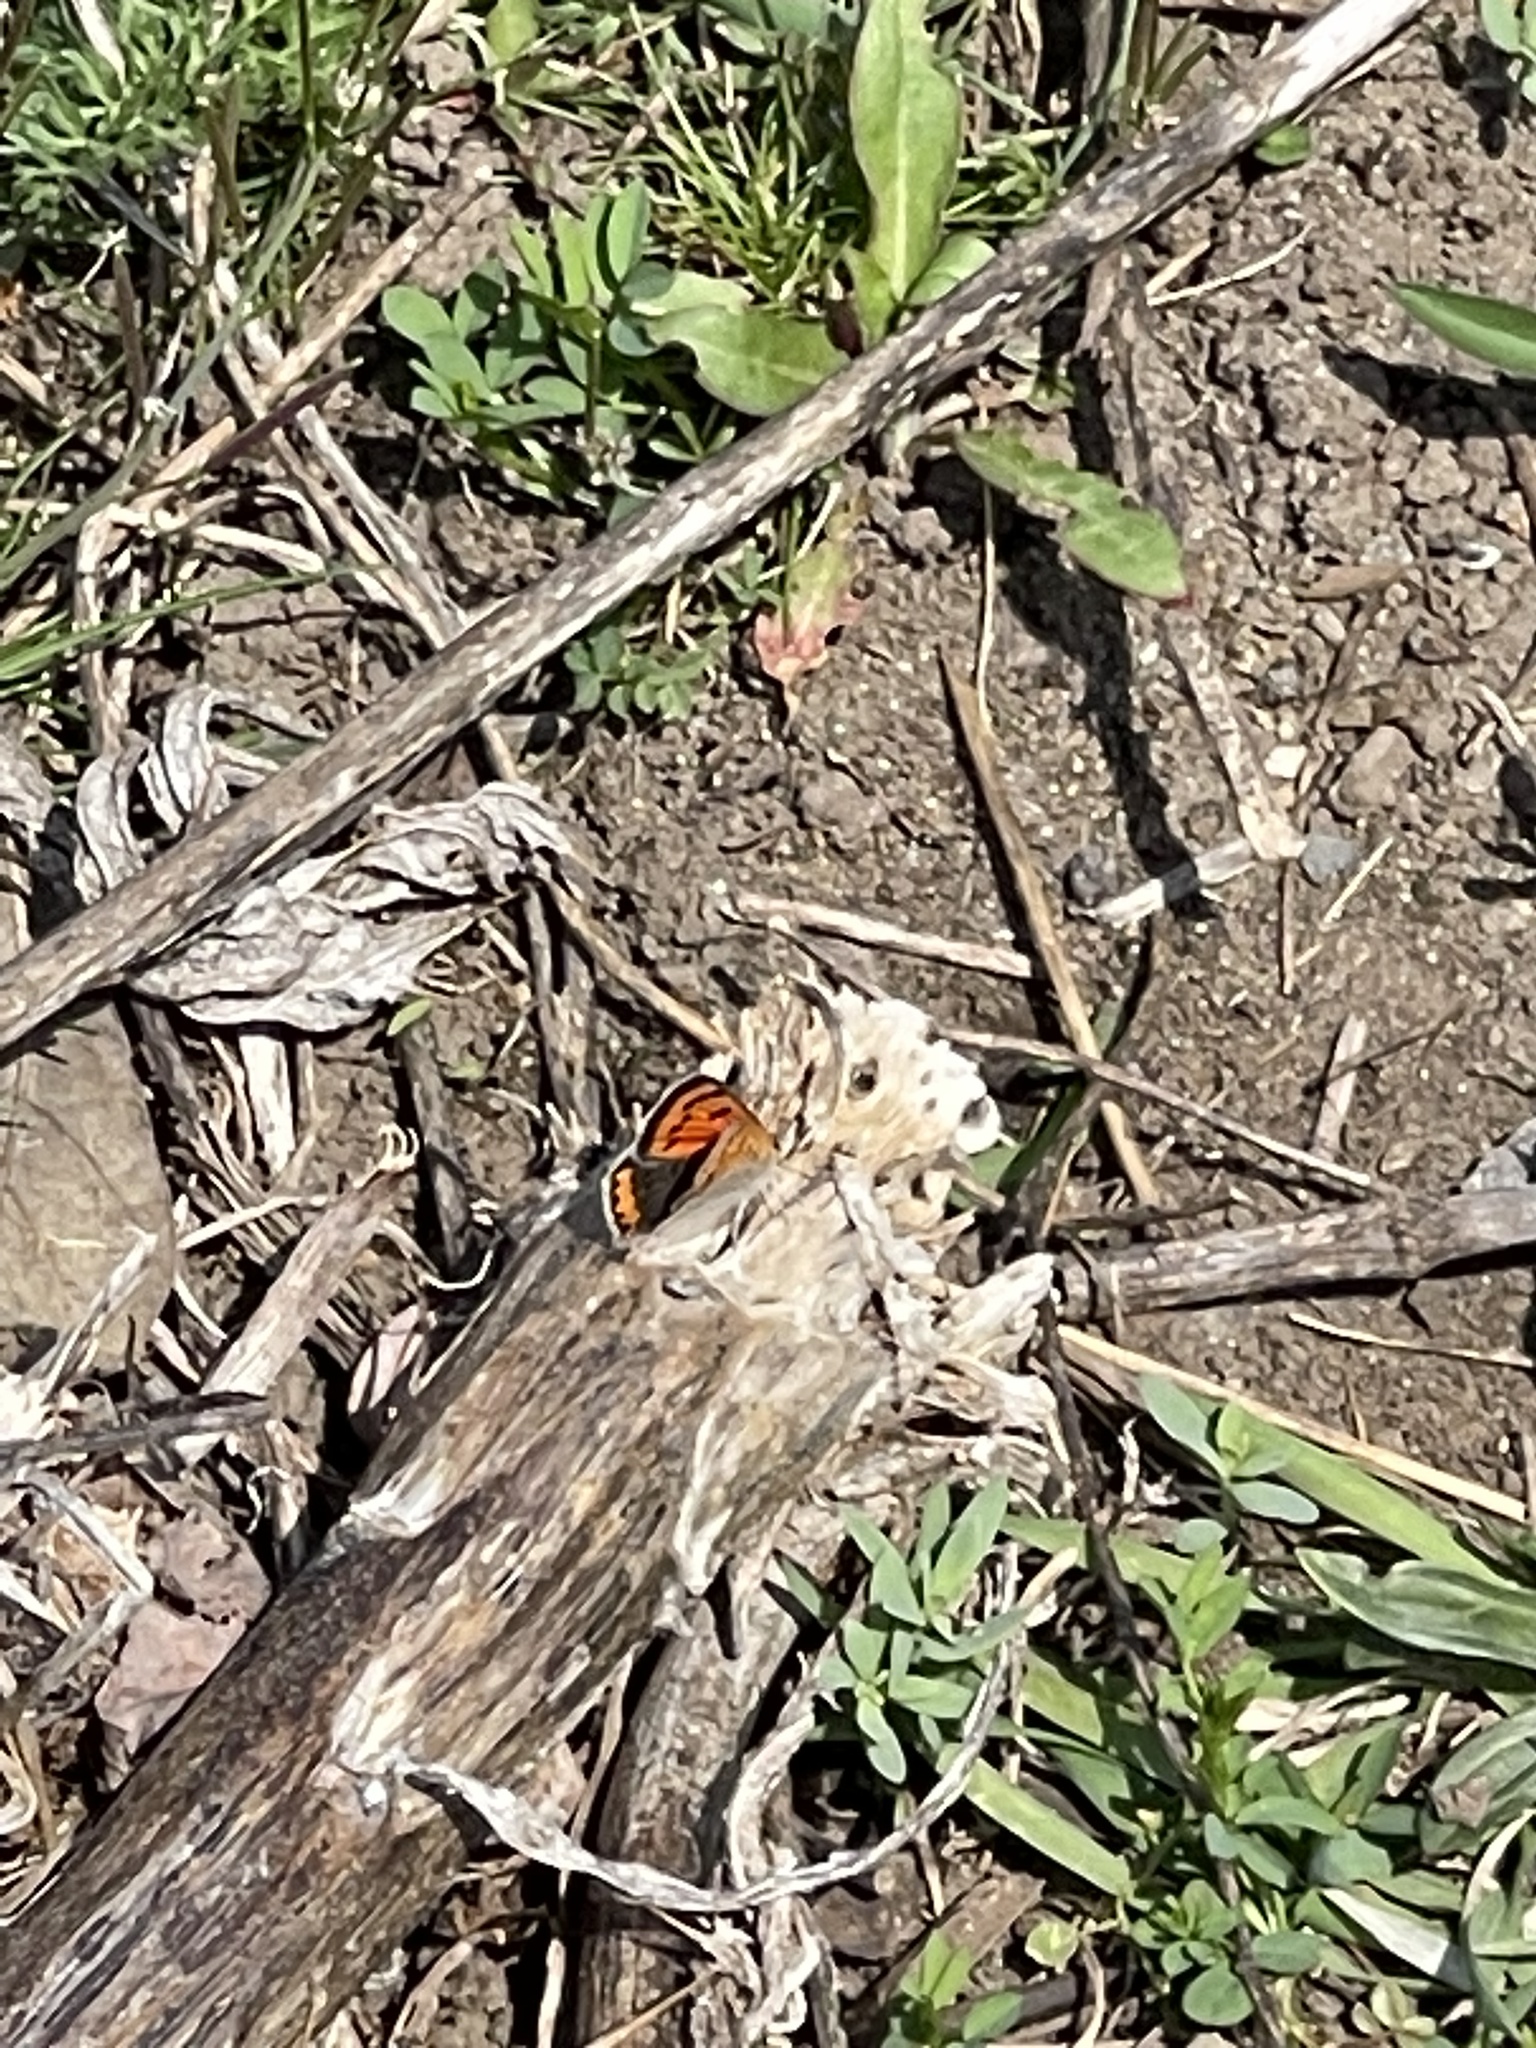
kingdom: Animalia
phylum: Arthropoda
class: Insecta
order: Lepidoptera
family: Lycaenidae
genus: Lycaena
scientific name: Lycaena hypophlaeas
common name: American copper
